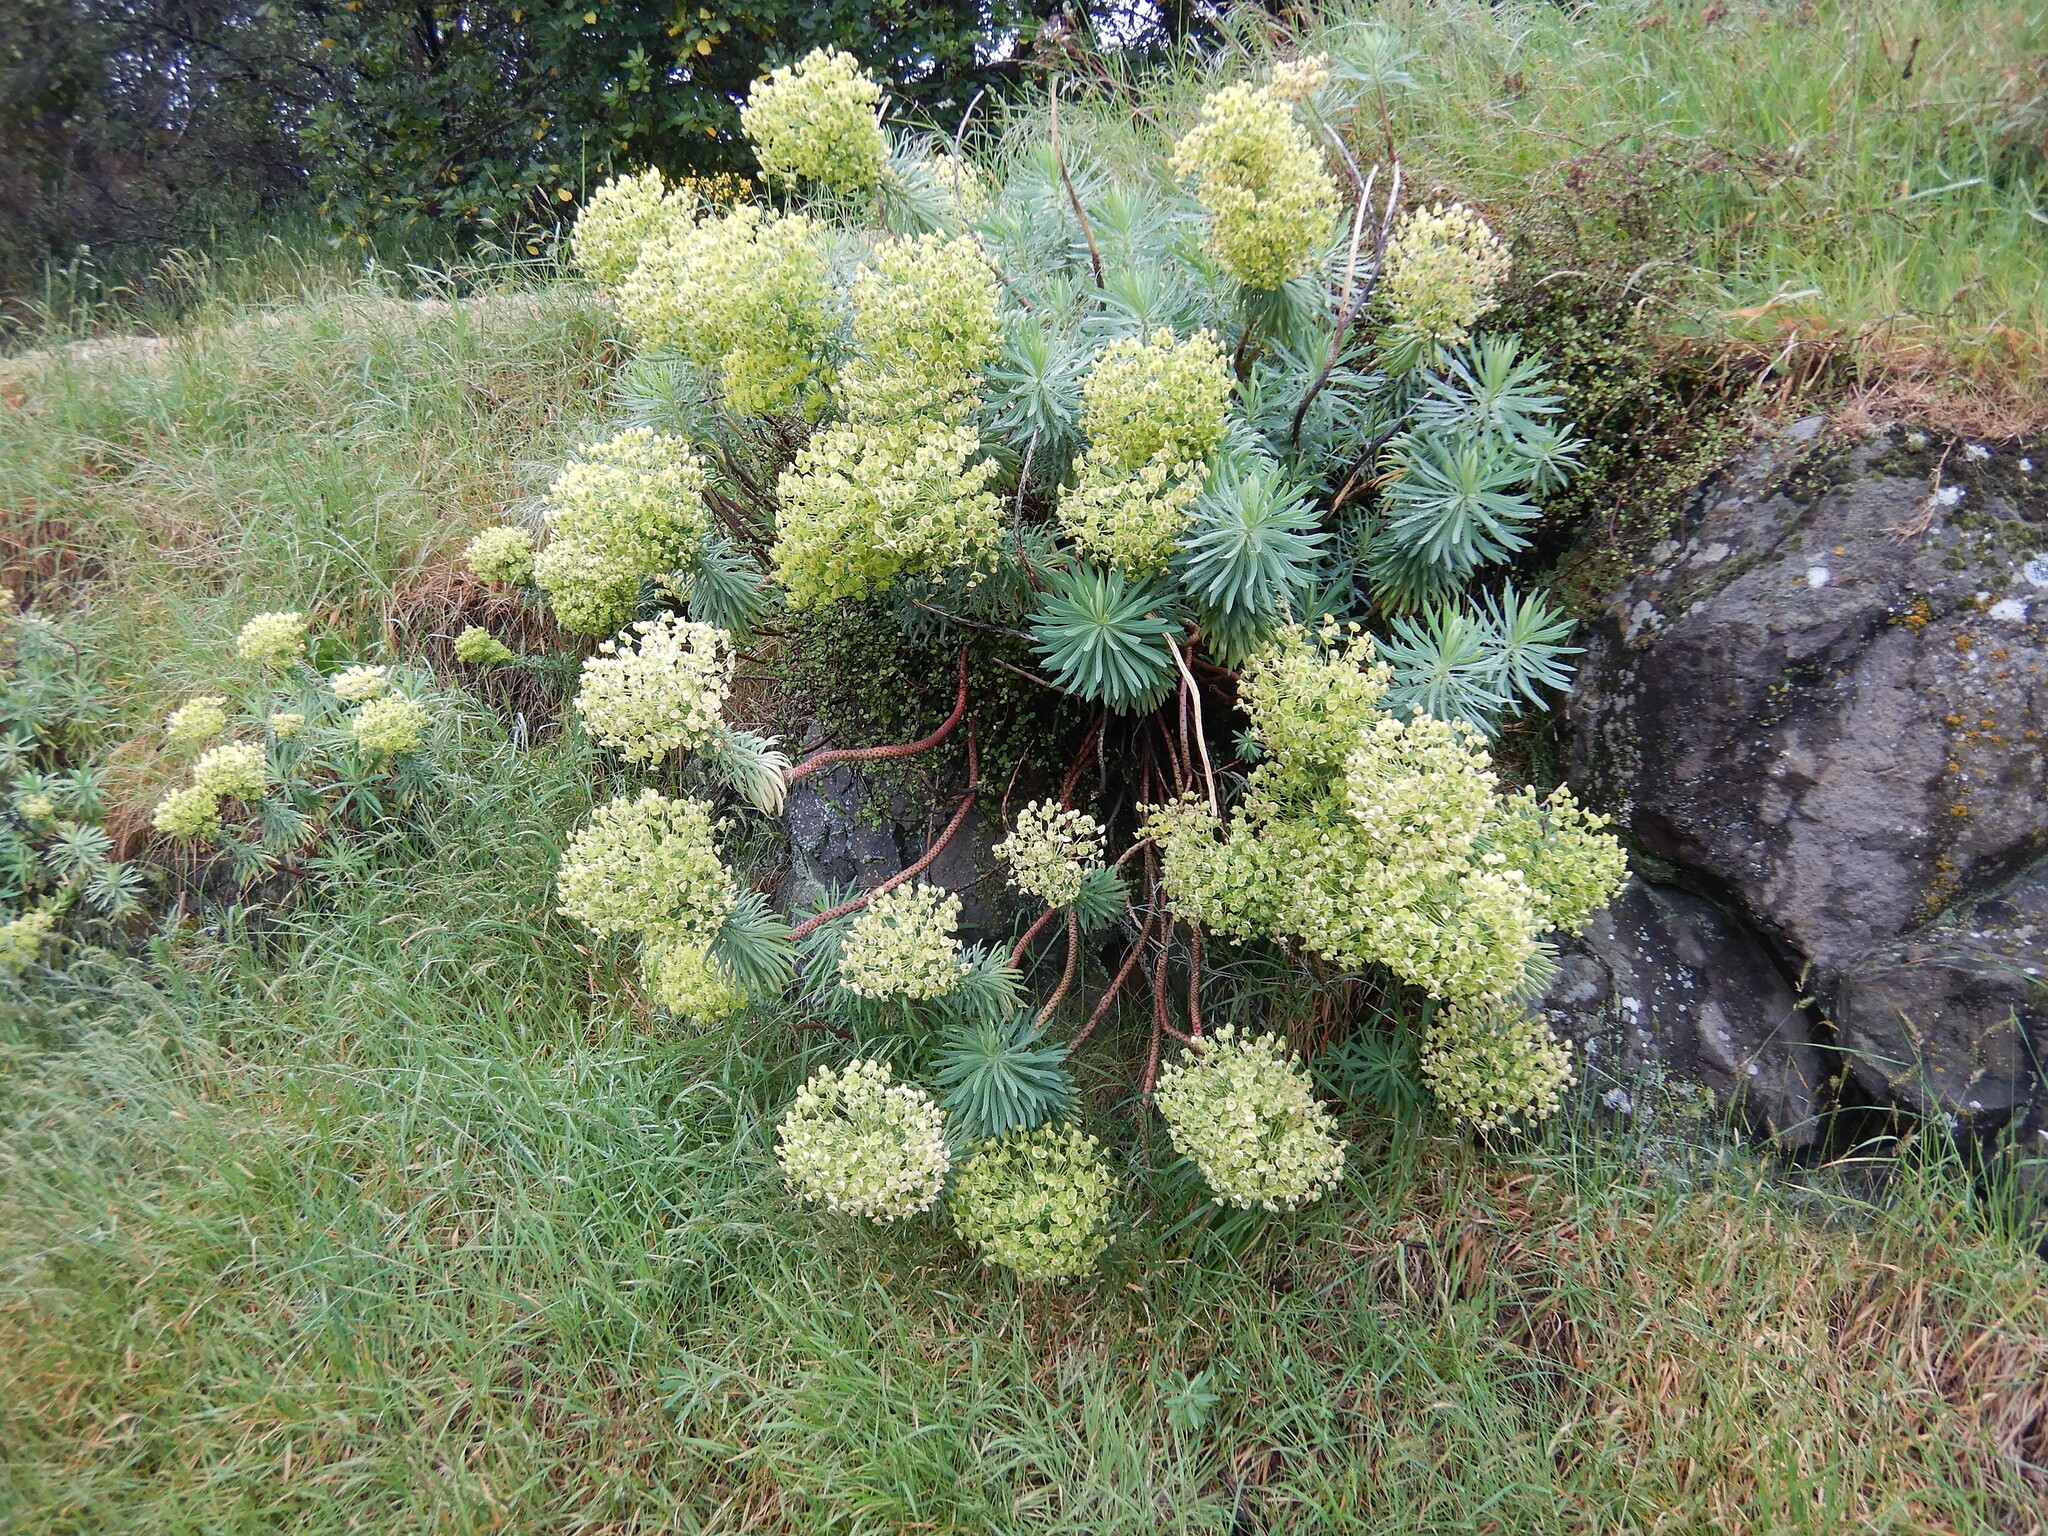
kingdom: Plantae
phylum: Tracheophyta
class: Magnoliopsida
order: Malpighiales
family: Euphorbiaceae
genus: Euphorbia
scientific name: Euphorbia characias
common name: Mediterranean spurge
